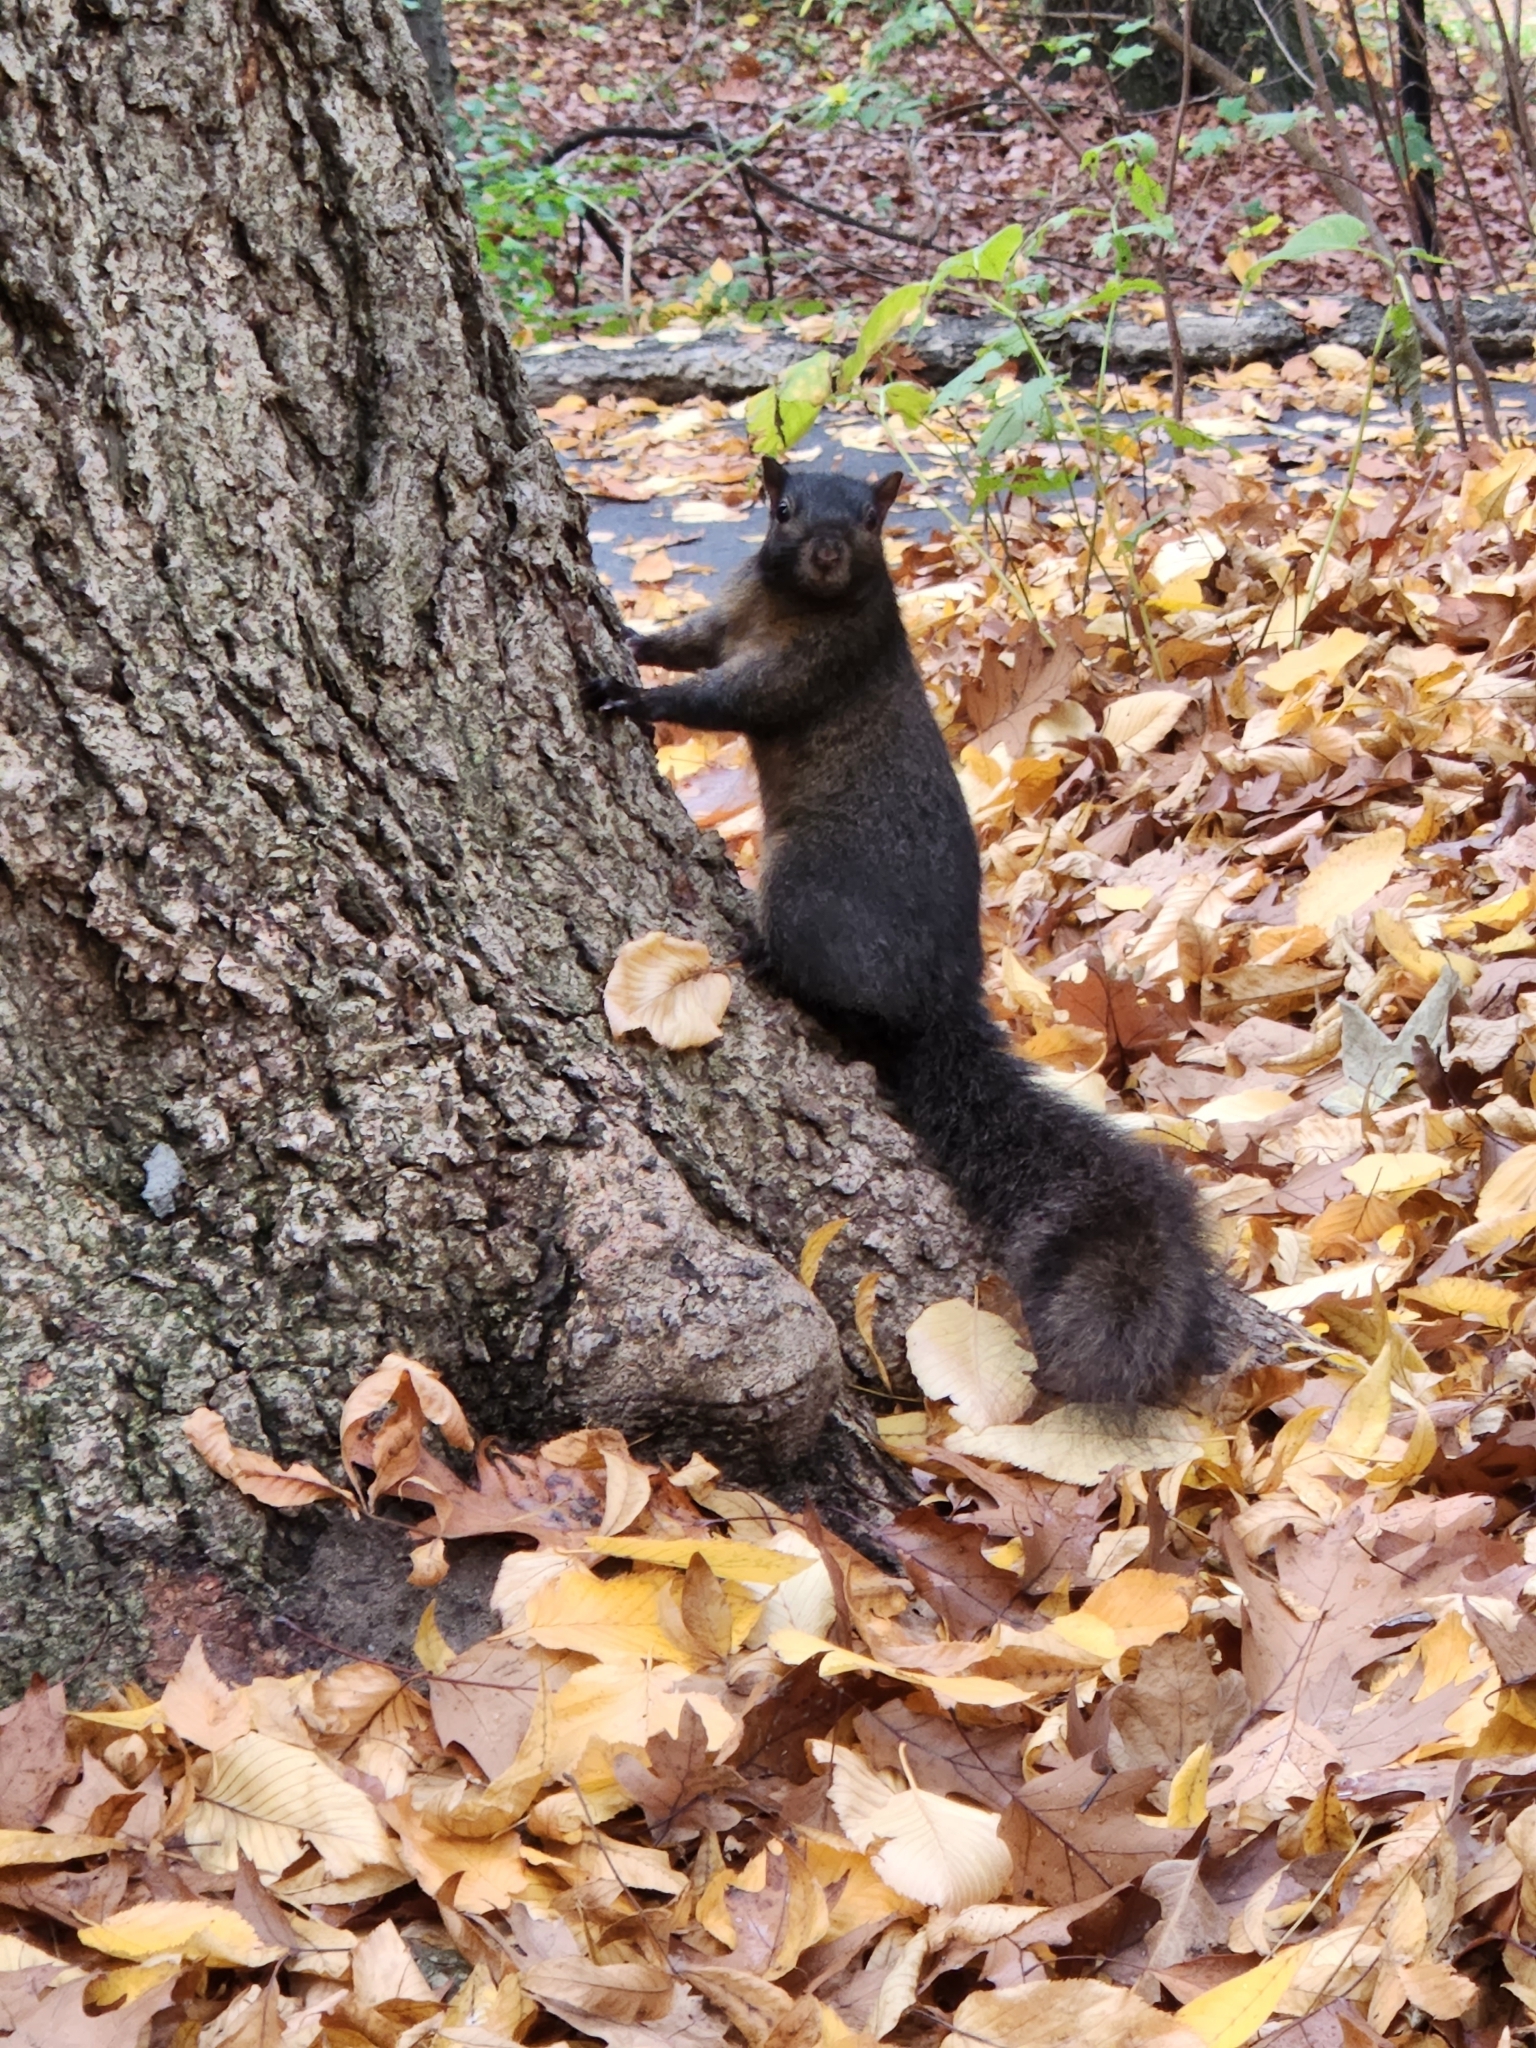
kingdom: Animalia
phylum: Chordata
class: Mammalia
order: Rodentia
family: Sciuridae
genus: Sciurus
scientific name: Sciurus carolinensis
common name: Eastern gray squirrel
